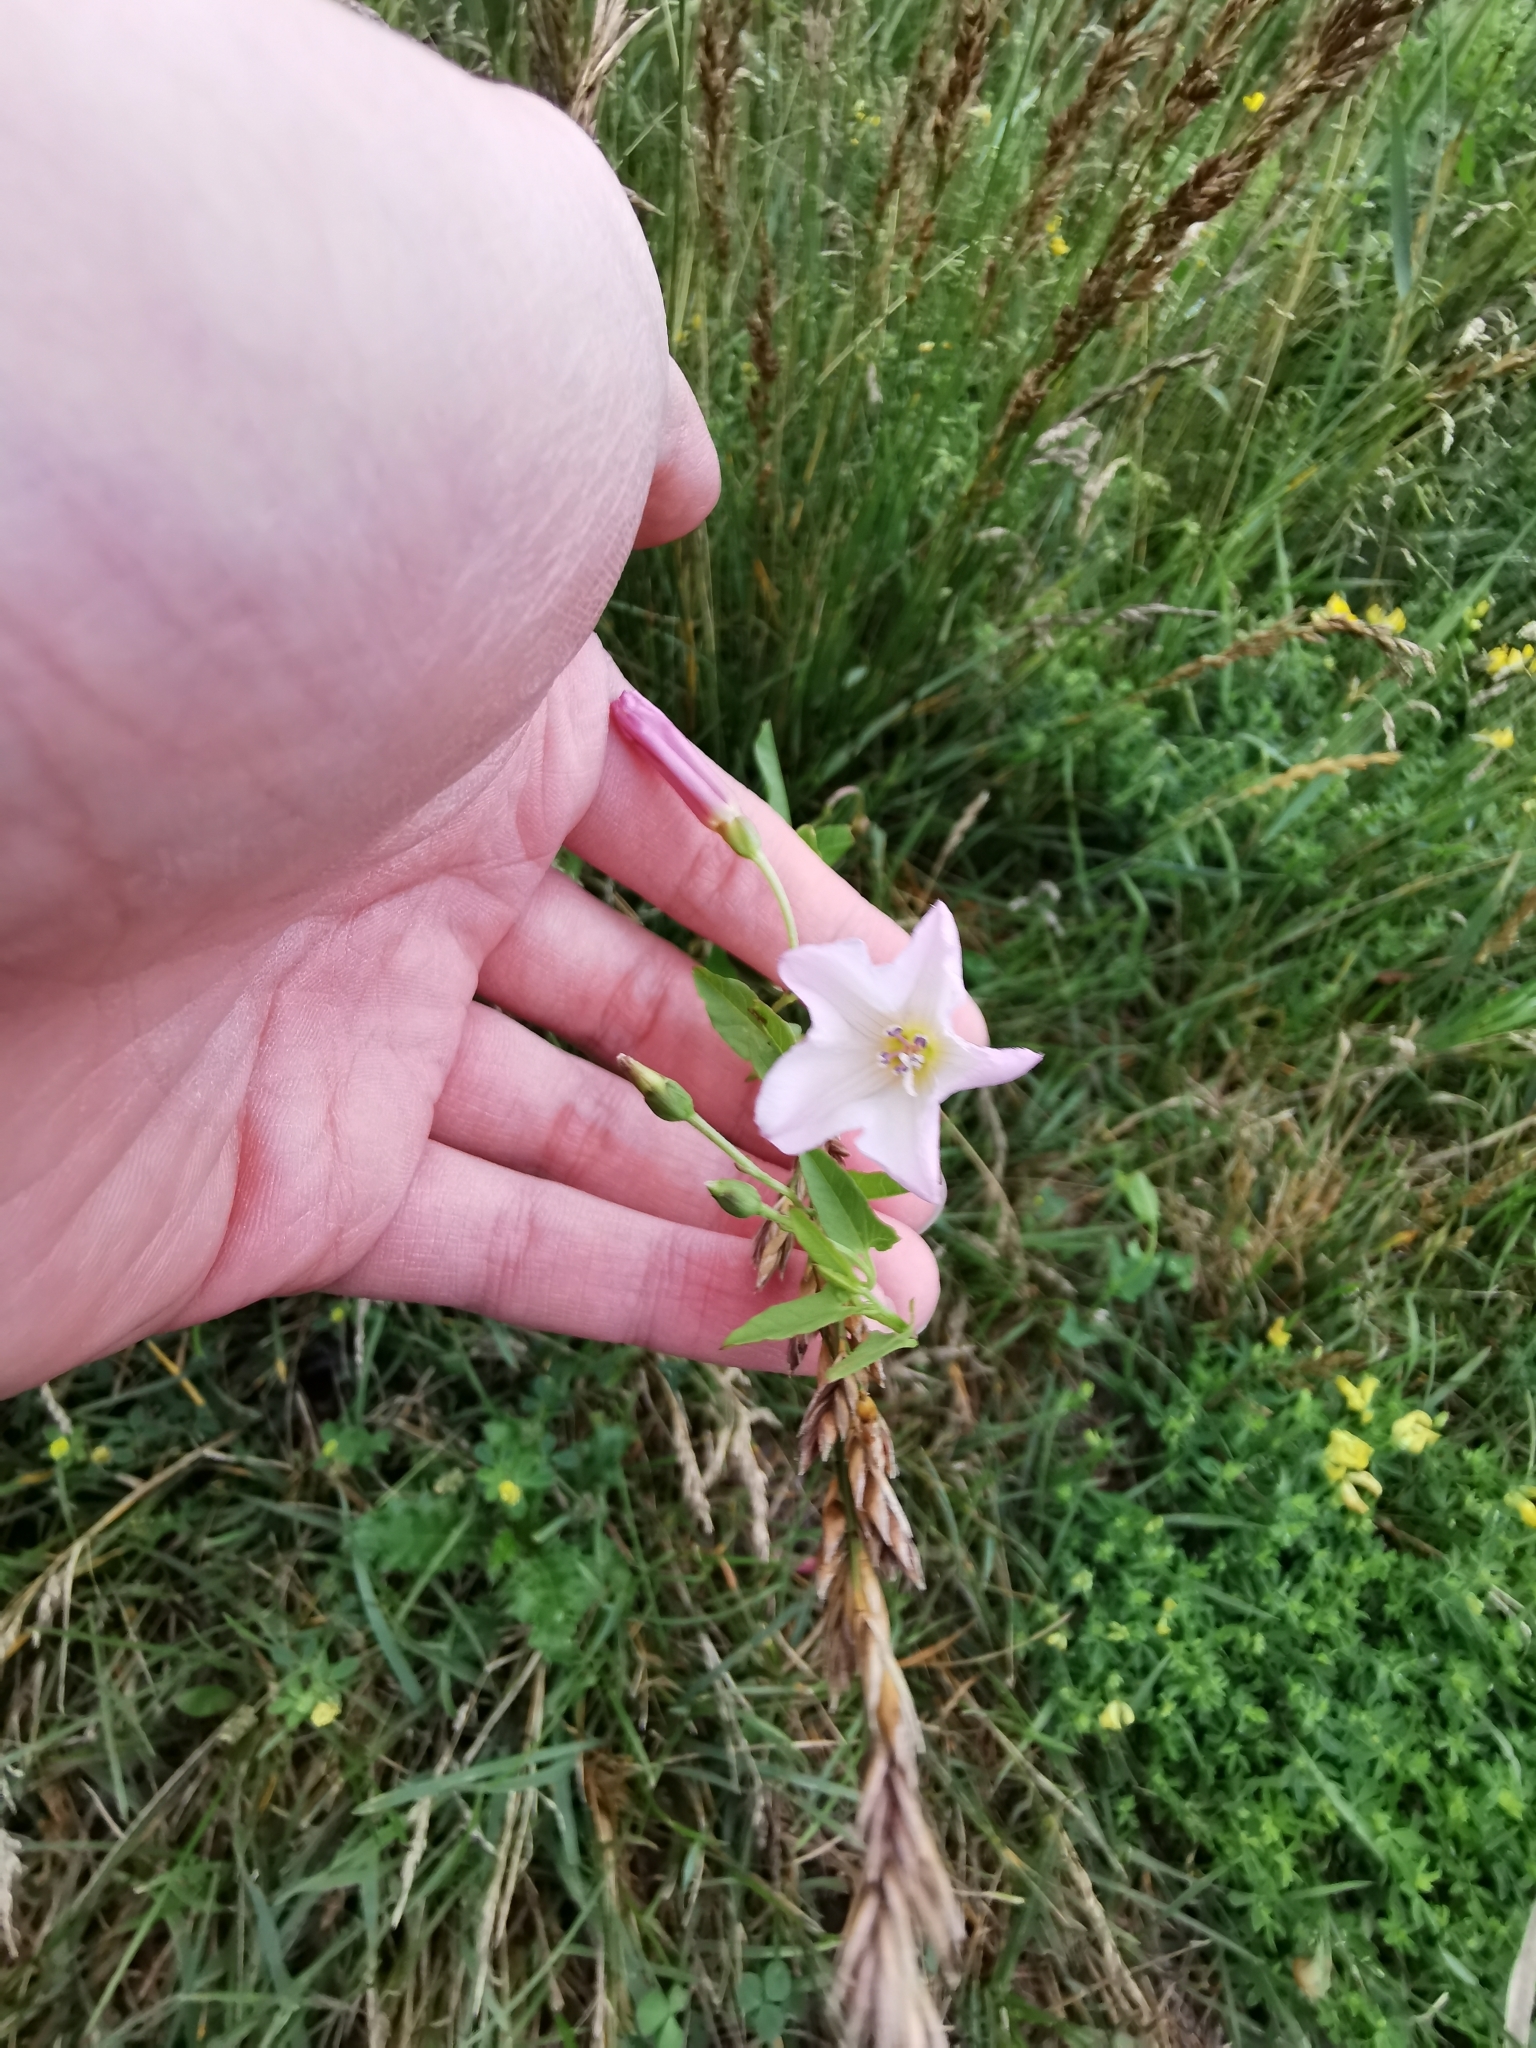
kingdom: Plantae
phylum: Tracheophyta
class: Magnoliopsida
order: Solanales
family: Convolvulaceae
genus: Convolvulus
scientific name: Convolvulus arvensis
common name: Field bindweed
